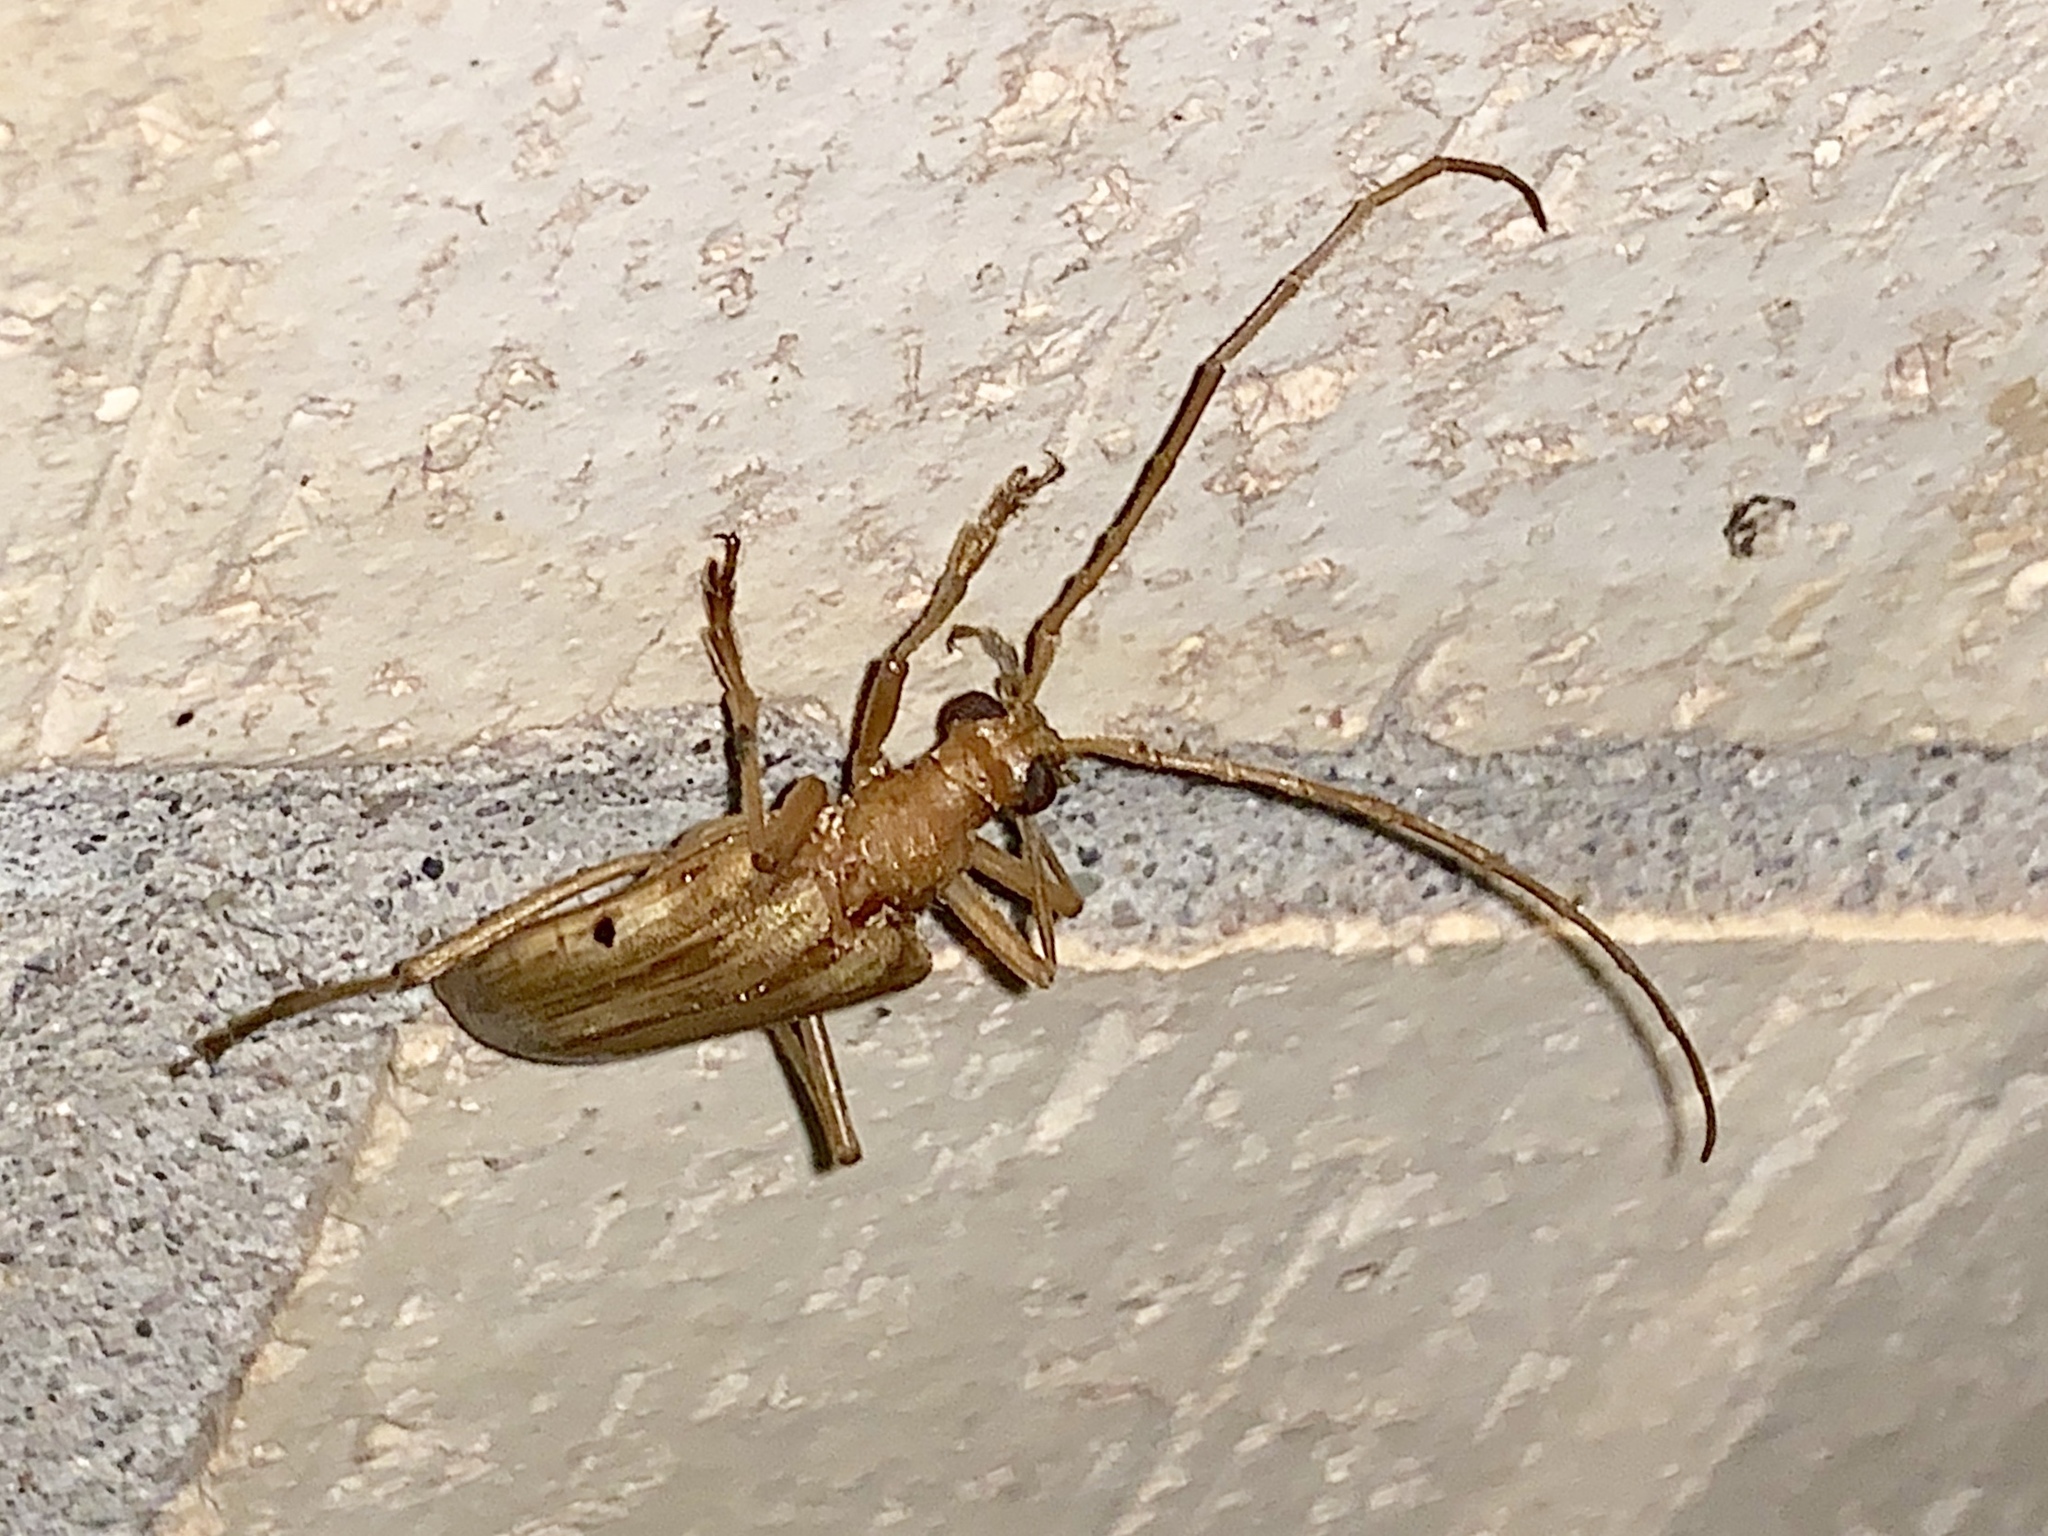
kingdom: Animalia
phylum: Arthropoda
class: Insecta
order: Coleoptera
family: Cerambycidae
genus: Centrodera
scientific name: Centrodera spurca
